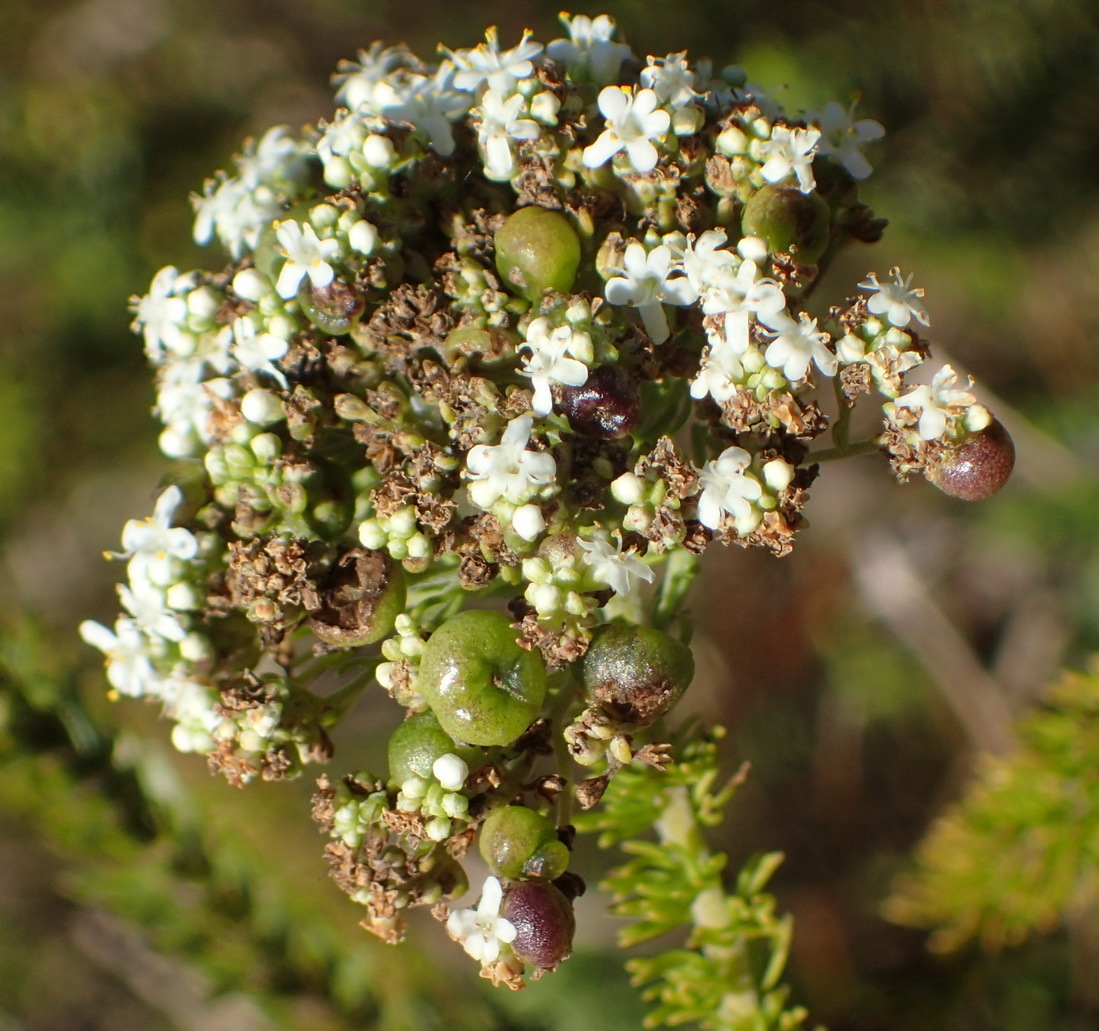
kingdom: Plantae
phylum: Tracheophyta
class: Magnoliopsida
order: Lamiales
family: Scrophulariaceae
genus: Selago
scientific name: Selago corymbosa
